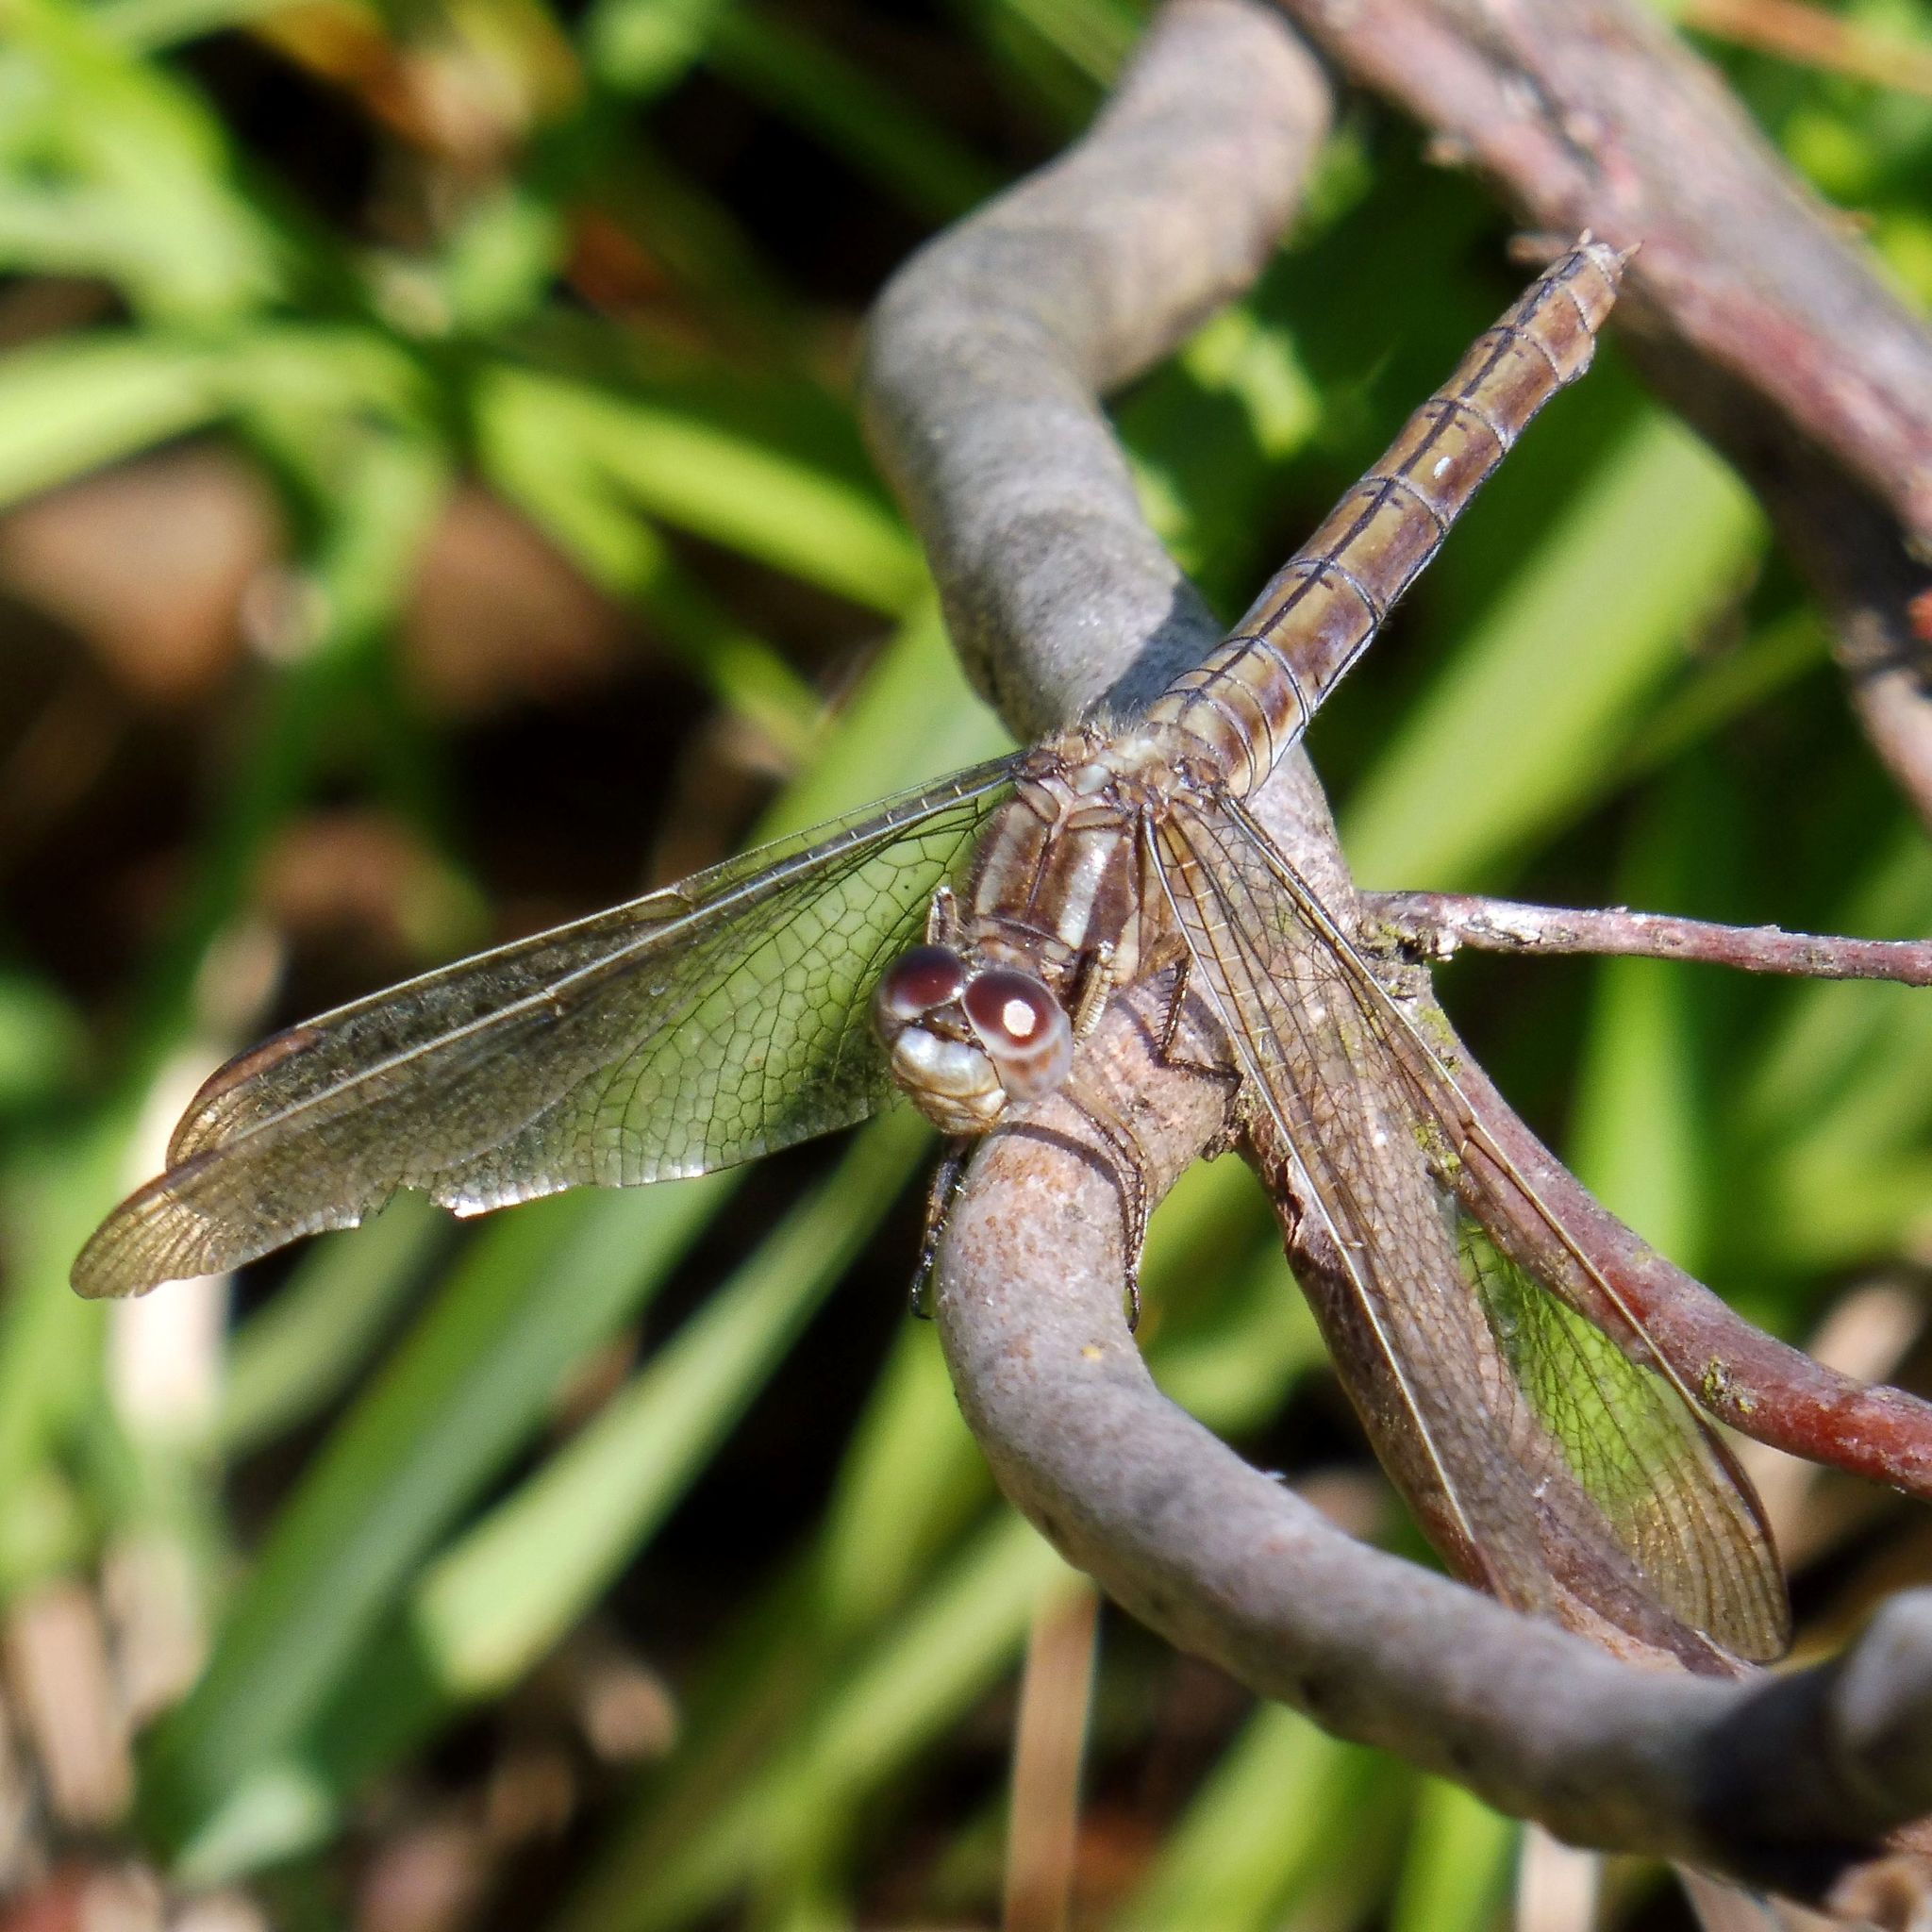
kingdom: Animalia
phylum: Arthropoda
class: Insecta
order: Odonata
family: Libellulidae
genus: Orthetrum
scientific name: Orthetrum coerulescens
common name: Keeled skimmer
